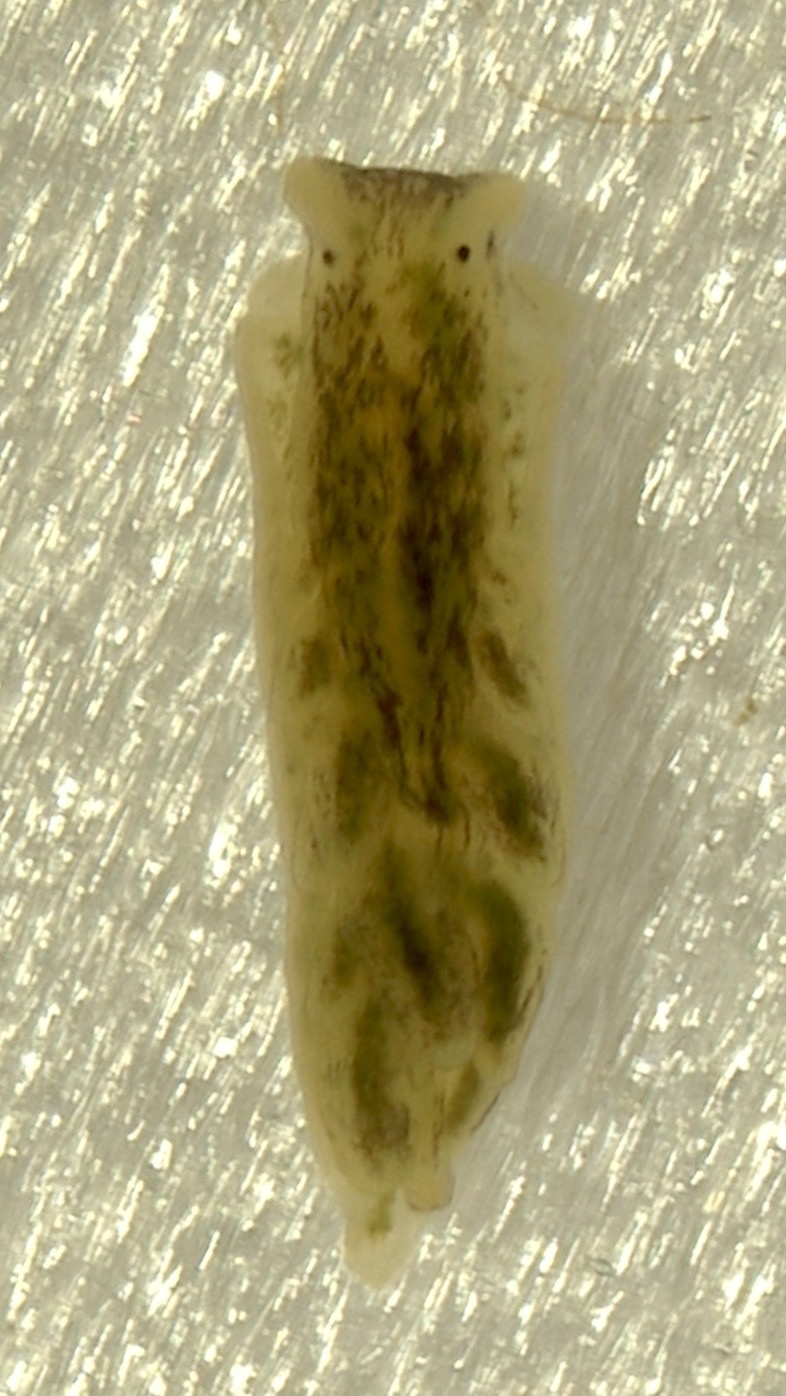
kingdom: Animalia
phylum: Mollusca
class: Gastropoda
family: Limapontiidae
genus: Alderia
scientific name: Alderia modesta
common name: Modest alderia
